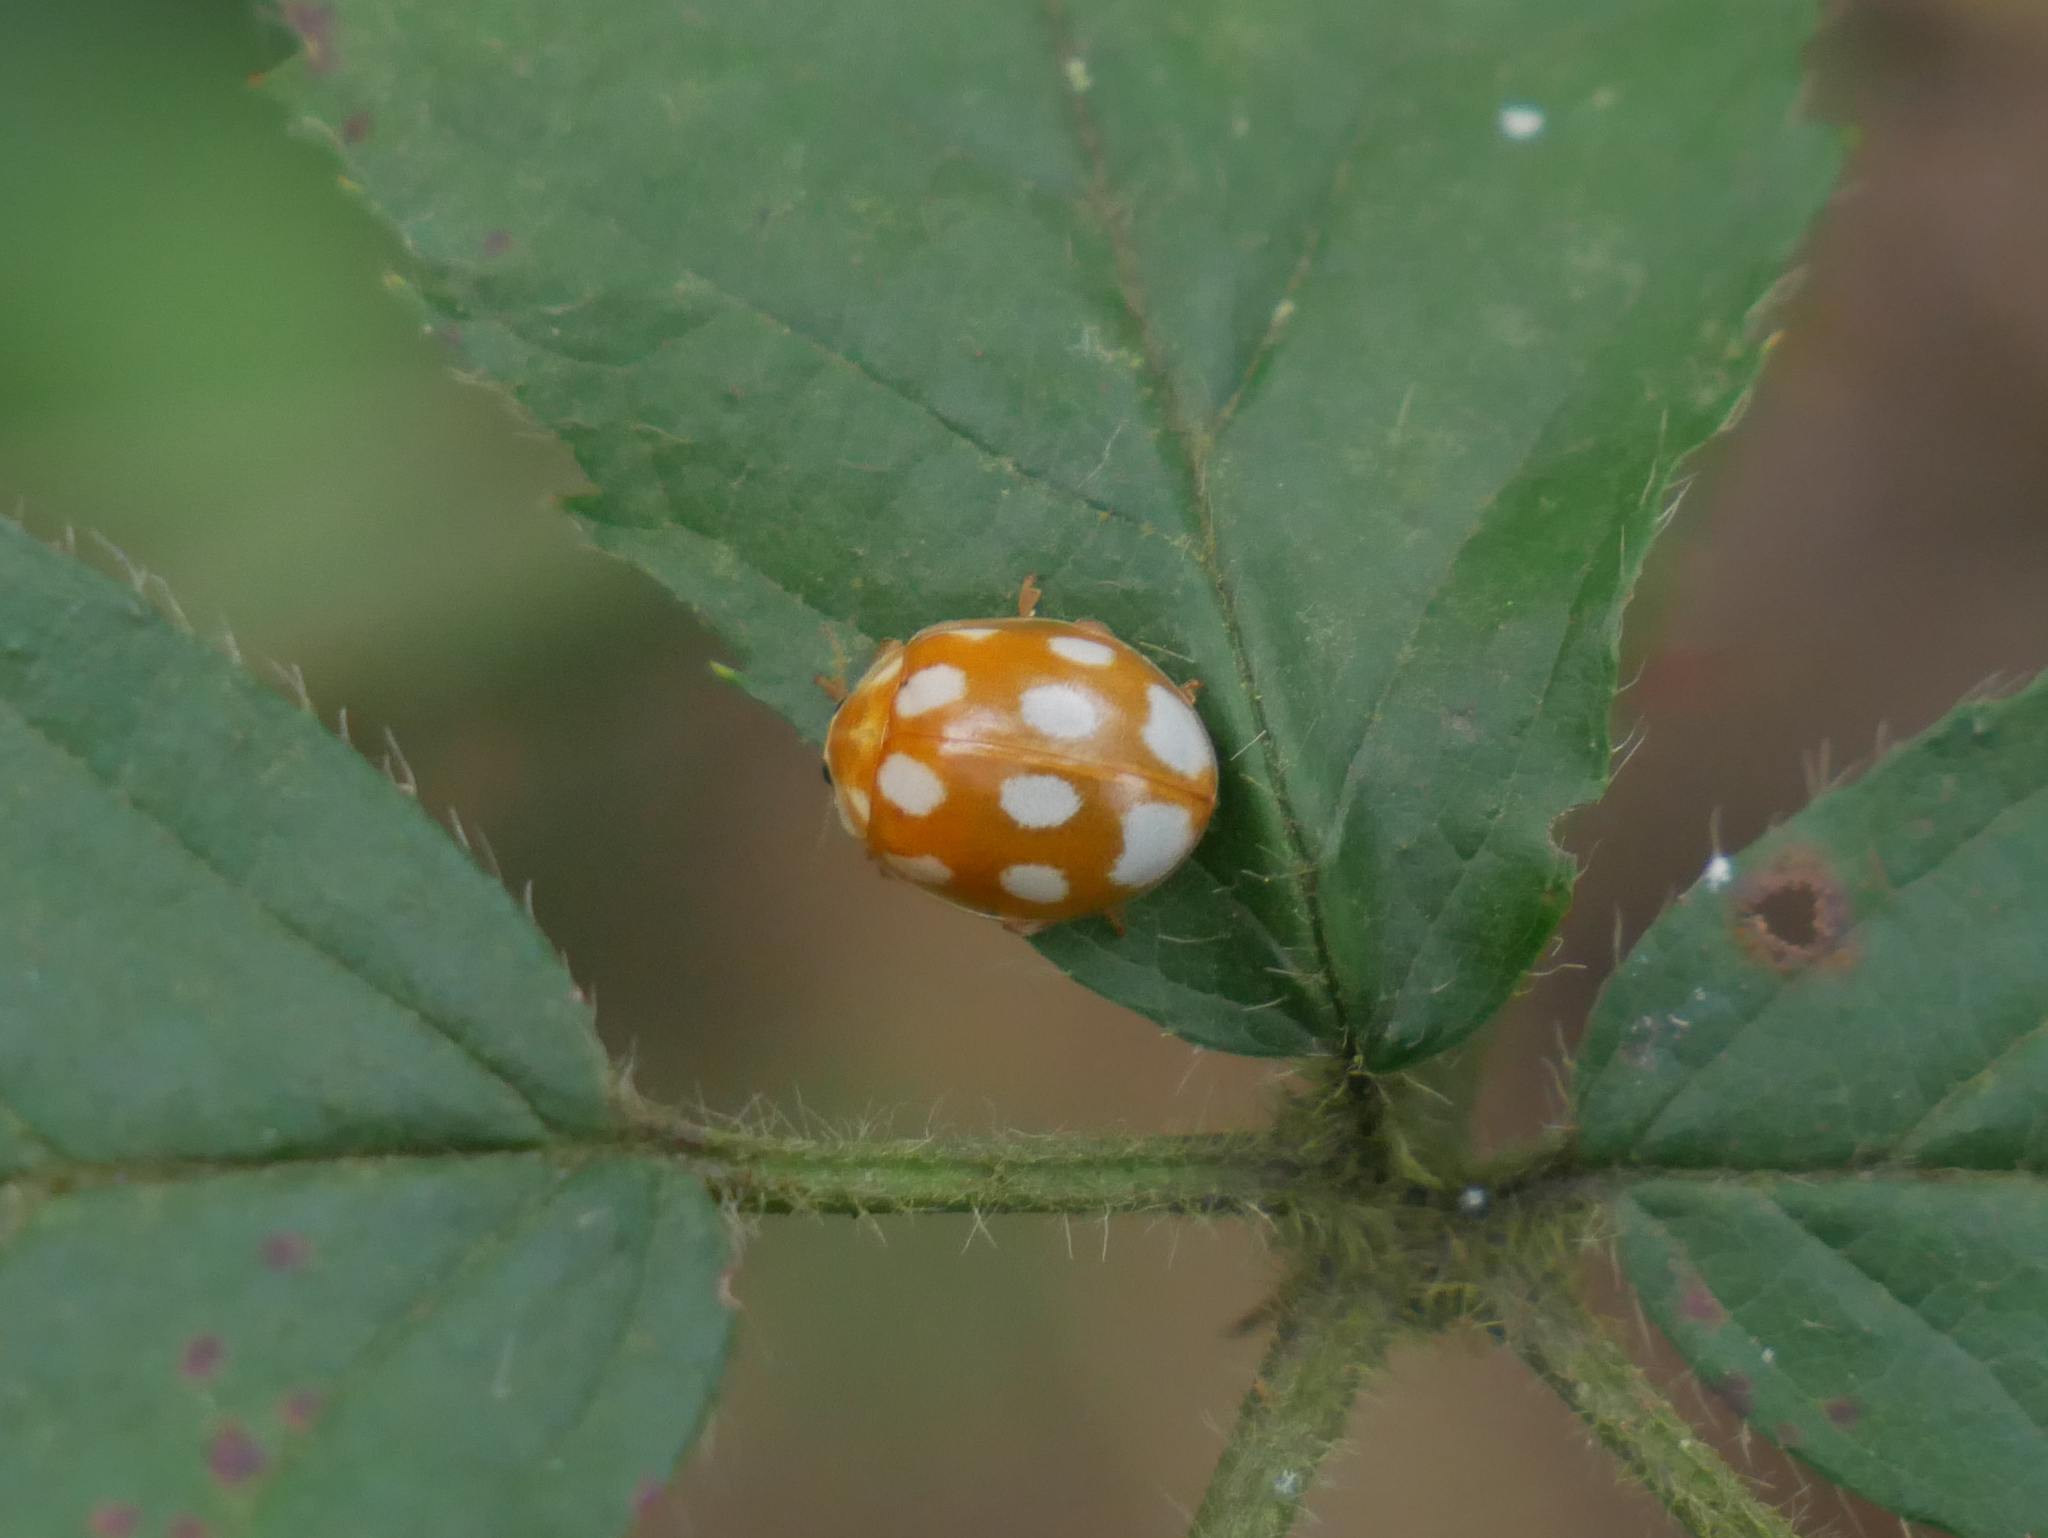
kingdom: Animalia
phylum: Arthropoda
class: Insecta
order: Coleoptera
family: Coccinellidae
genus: Calvia
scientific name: Calvia decemguttata
